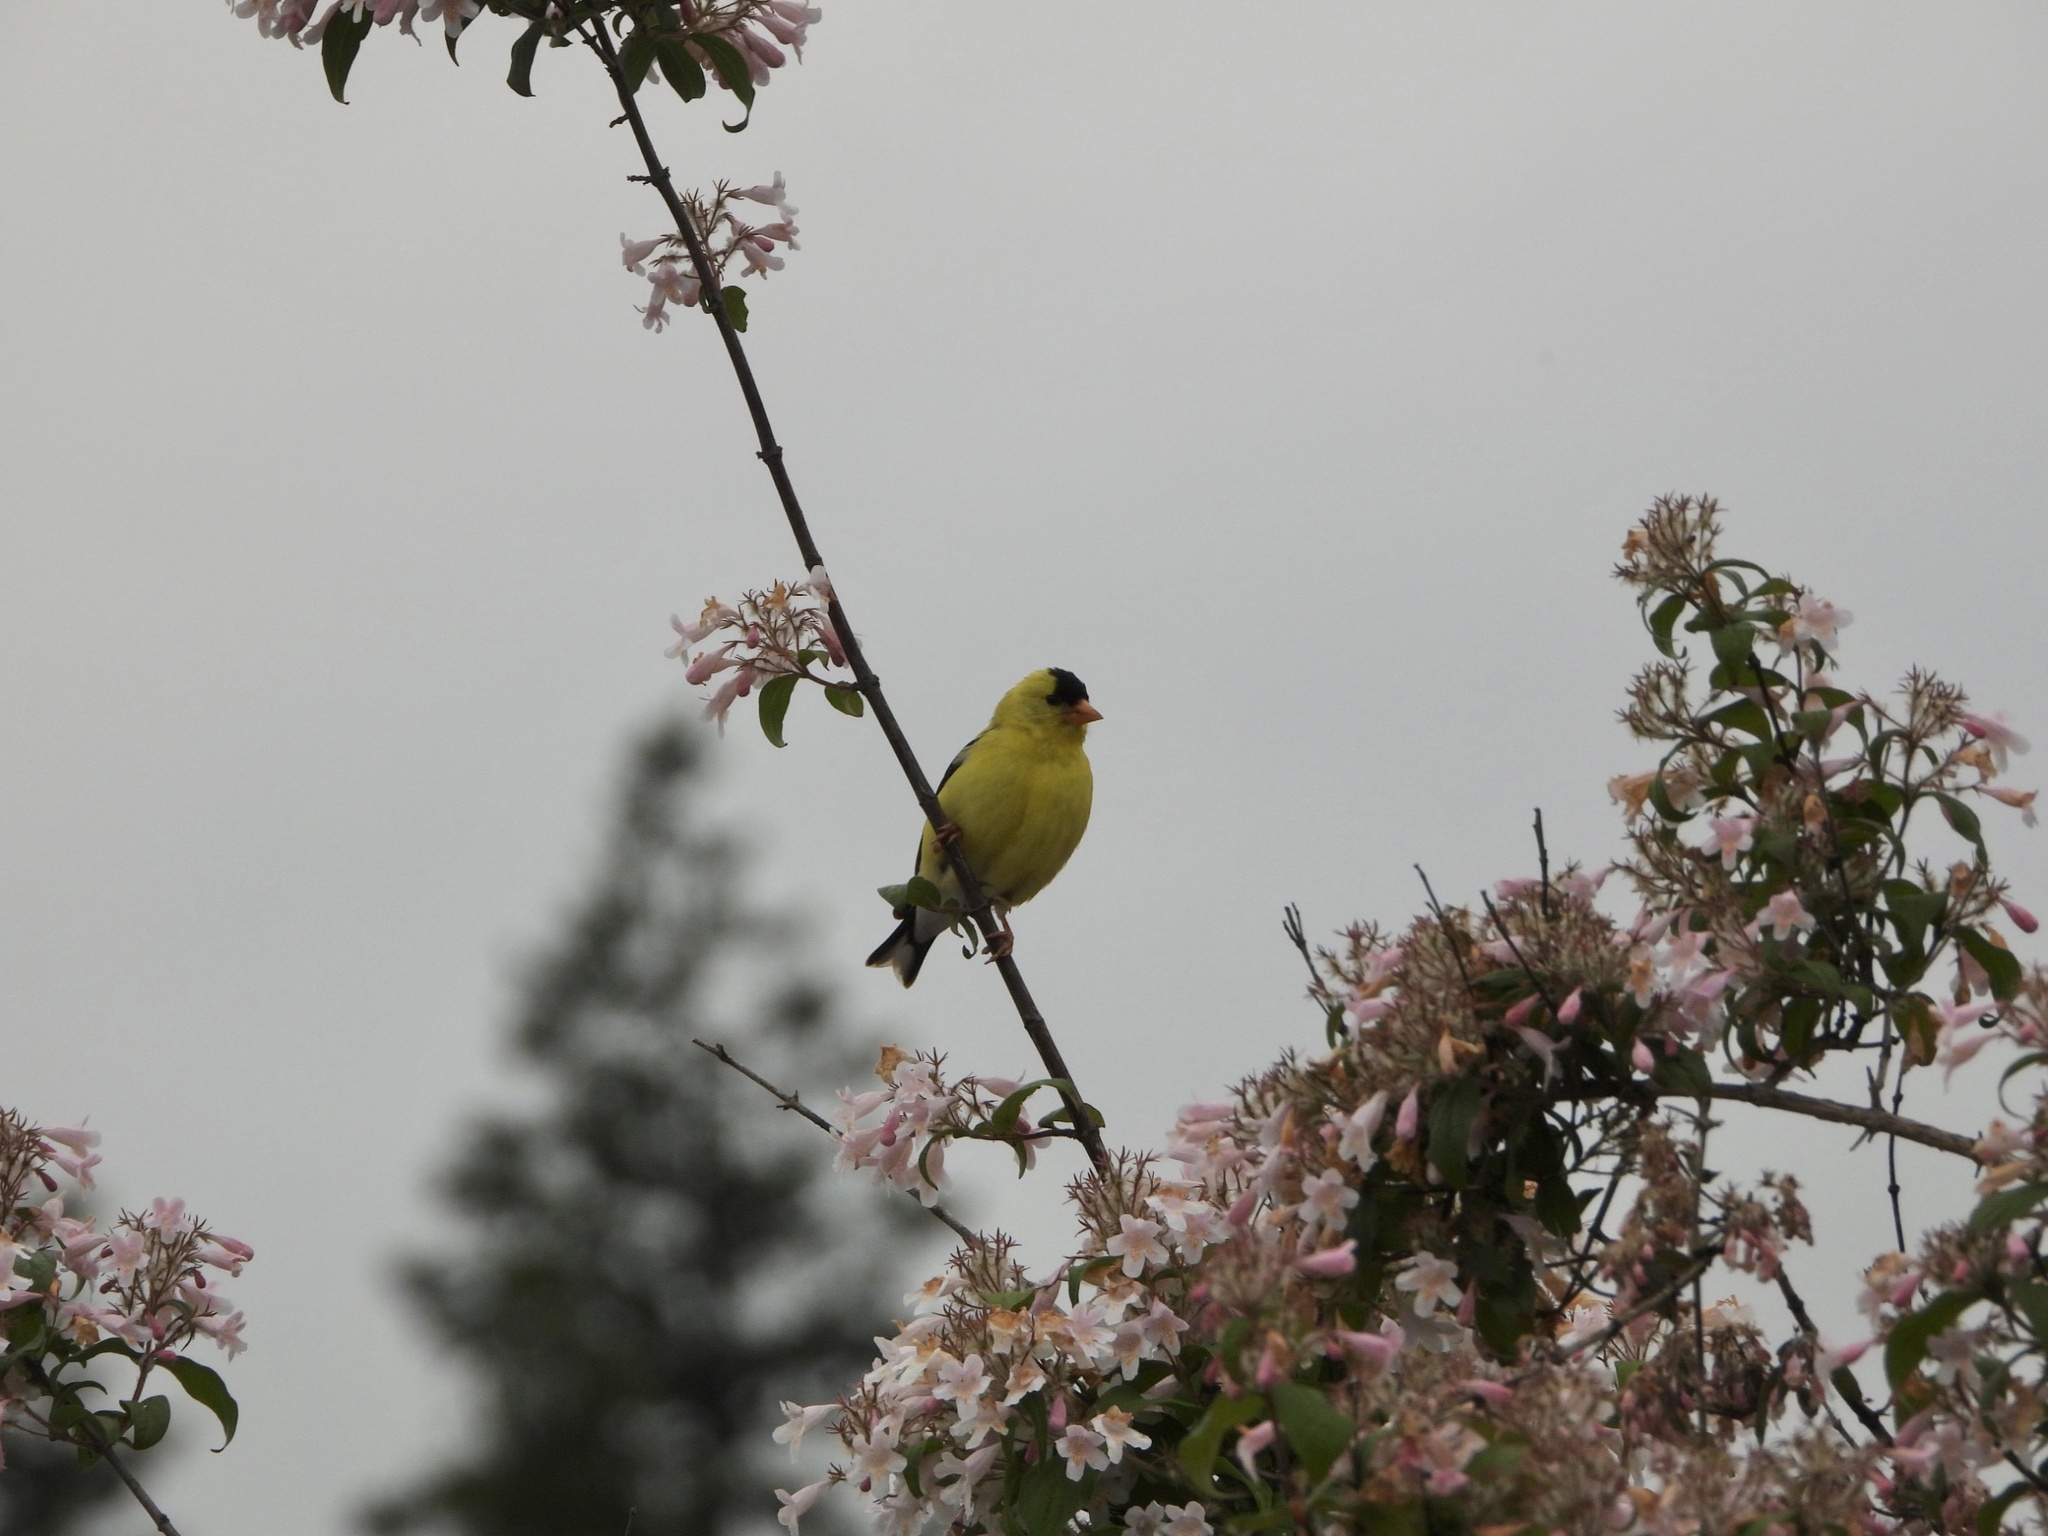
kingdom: Animalia
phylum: Chordata
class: Aves
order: Passeriformes
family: Fringillidae
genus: Spinus
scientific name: Spinus tristis
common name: American goldfinch
